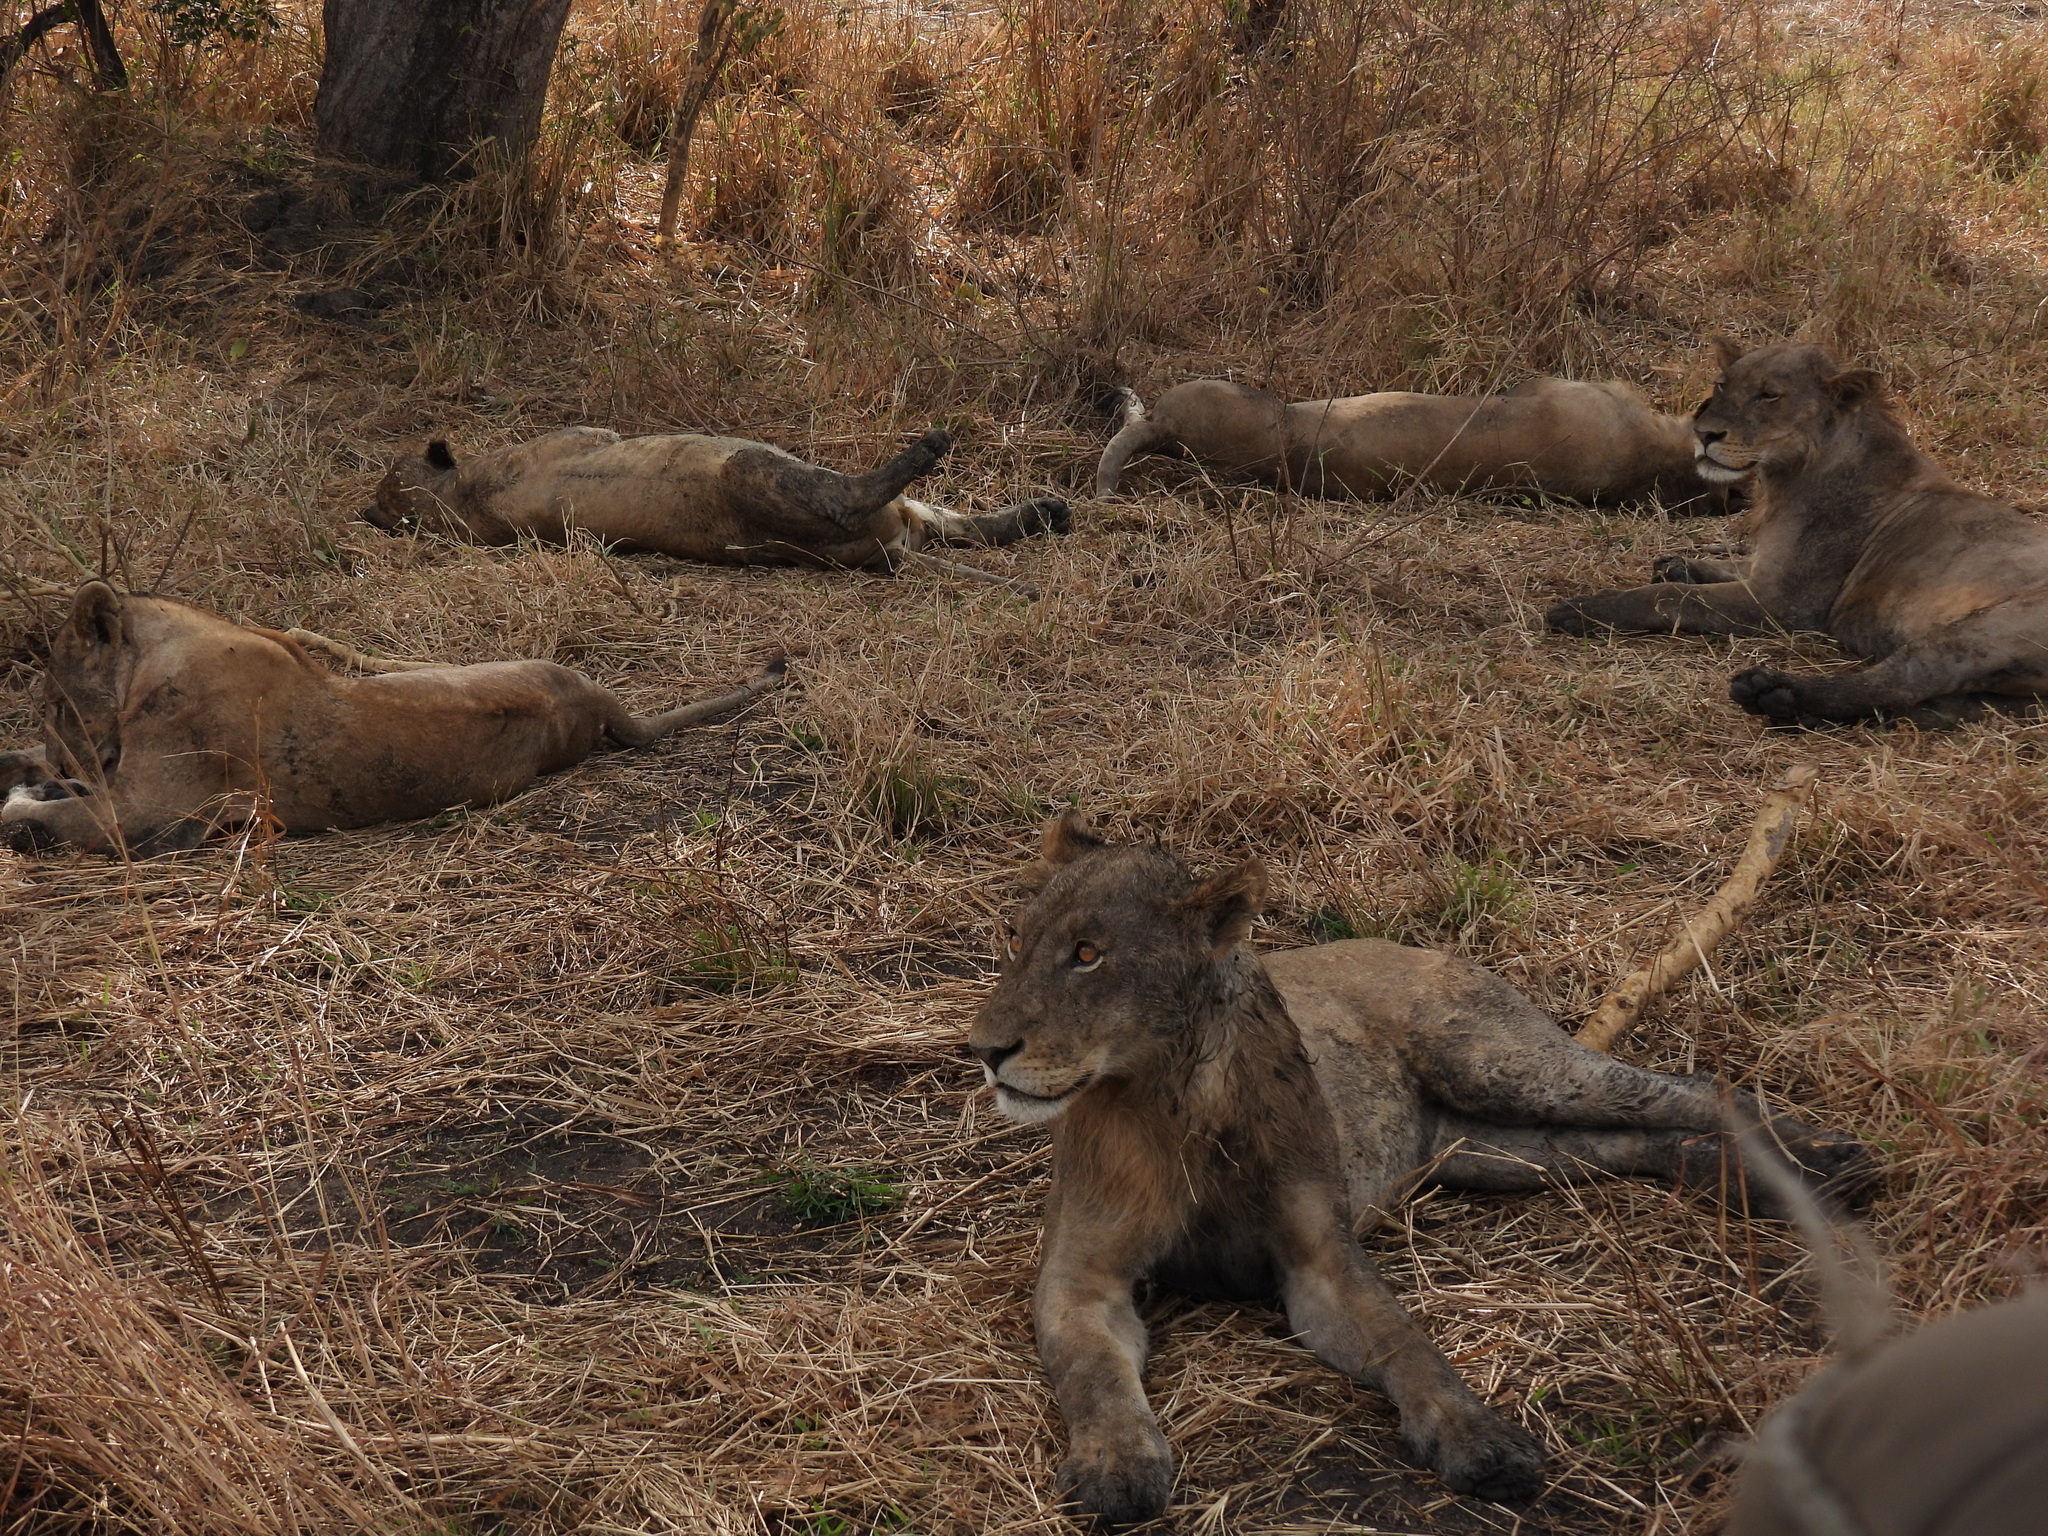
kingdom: Animalia
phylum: Chordata
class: Mammalia
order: Carnivora
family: Felidae
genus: Panthera
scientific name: Panthera leo
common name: Lion
